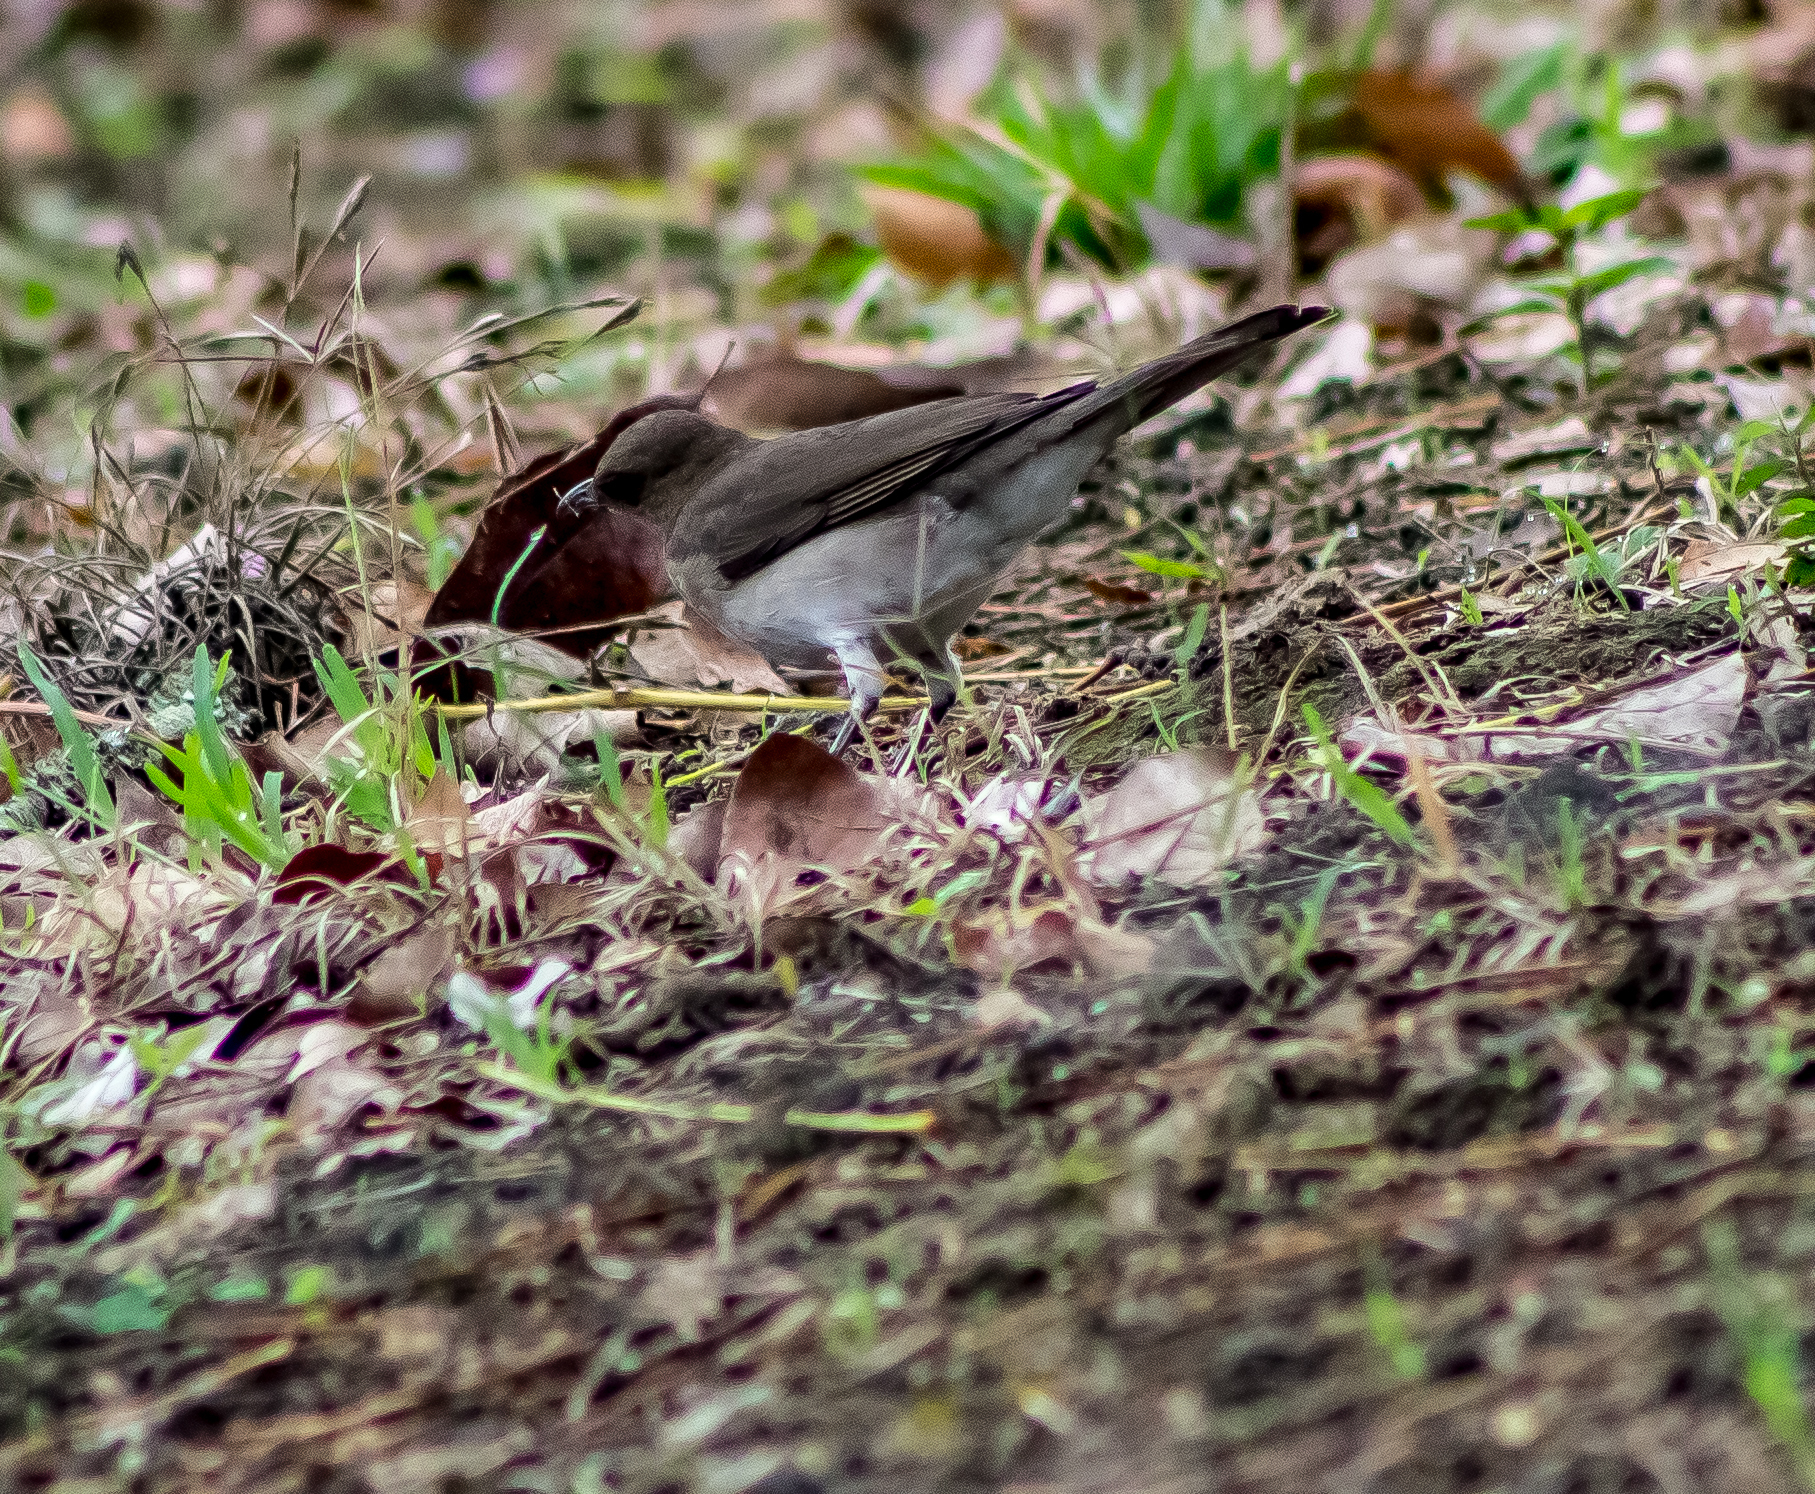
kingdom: Animalia
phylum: Chordata
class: Aves
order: Passeriformes
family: Turdidae
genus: Turdus
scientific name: Turdus ignobilis
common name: Black-billed thrush
